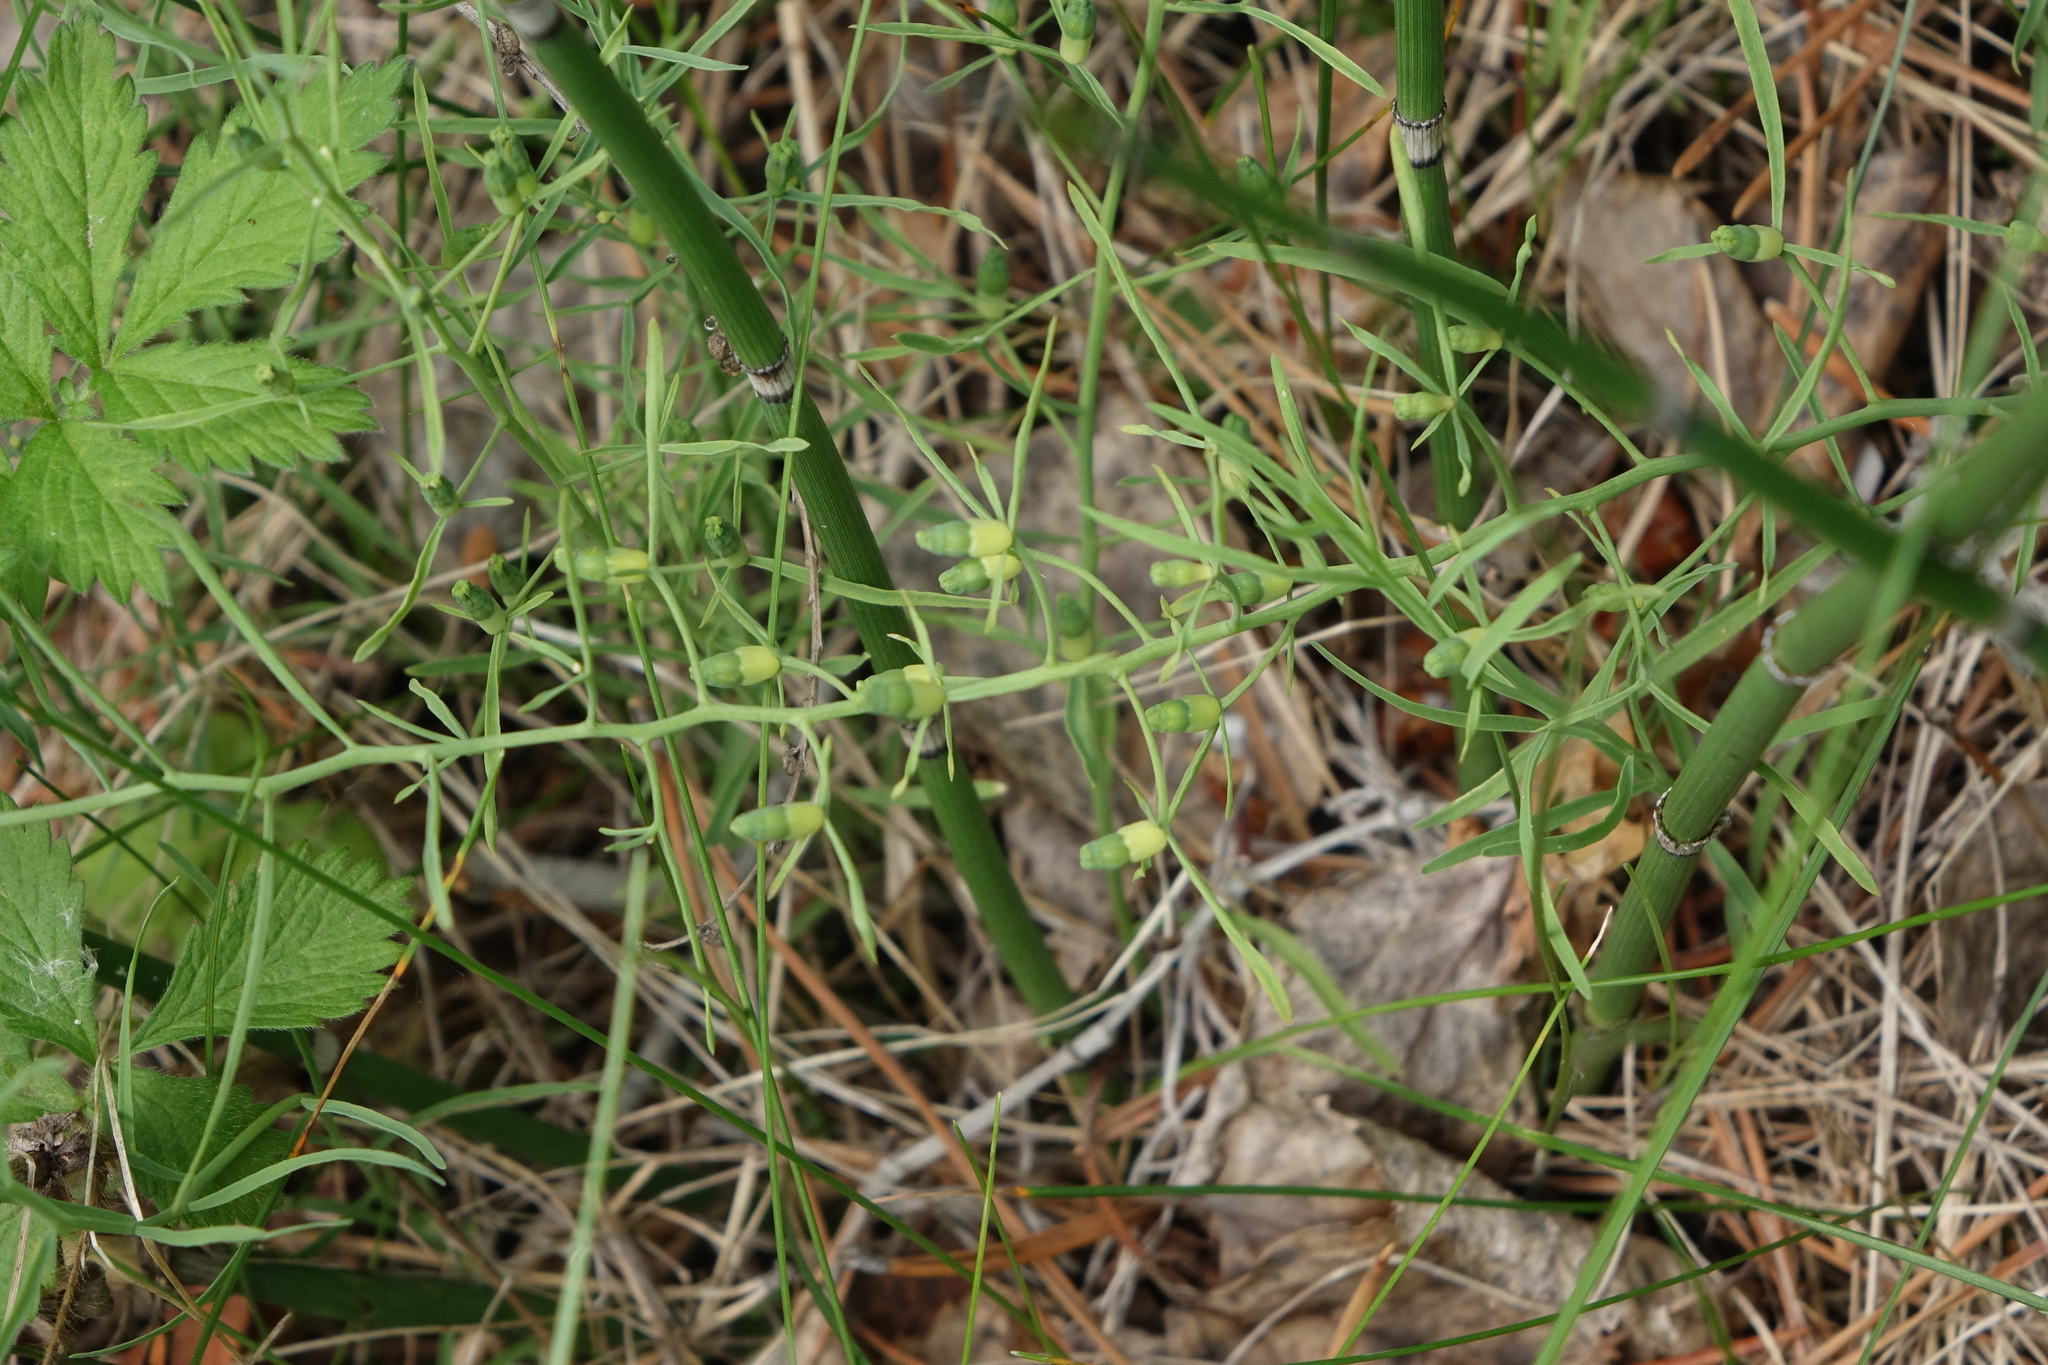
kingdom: Plantae
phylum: Tracheophyta
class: Magnoliopsida
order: Santalales
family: Thesiaceae
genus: Thesium
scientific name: Thesium repens
